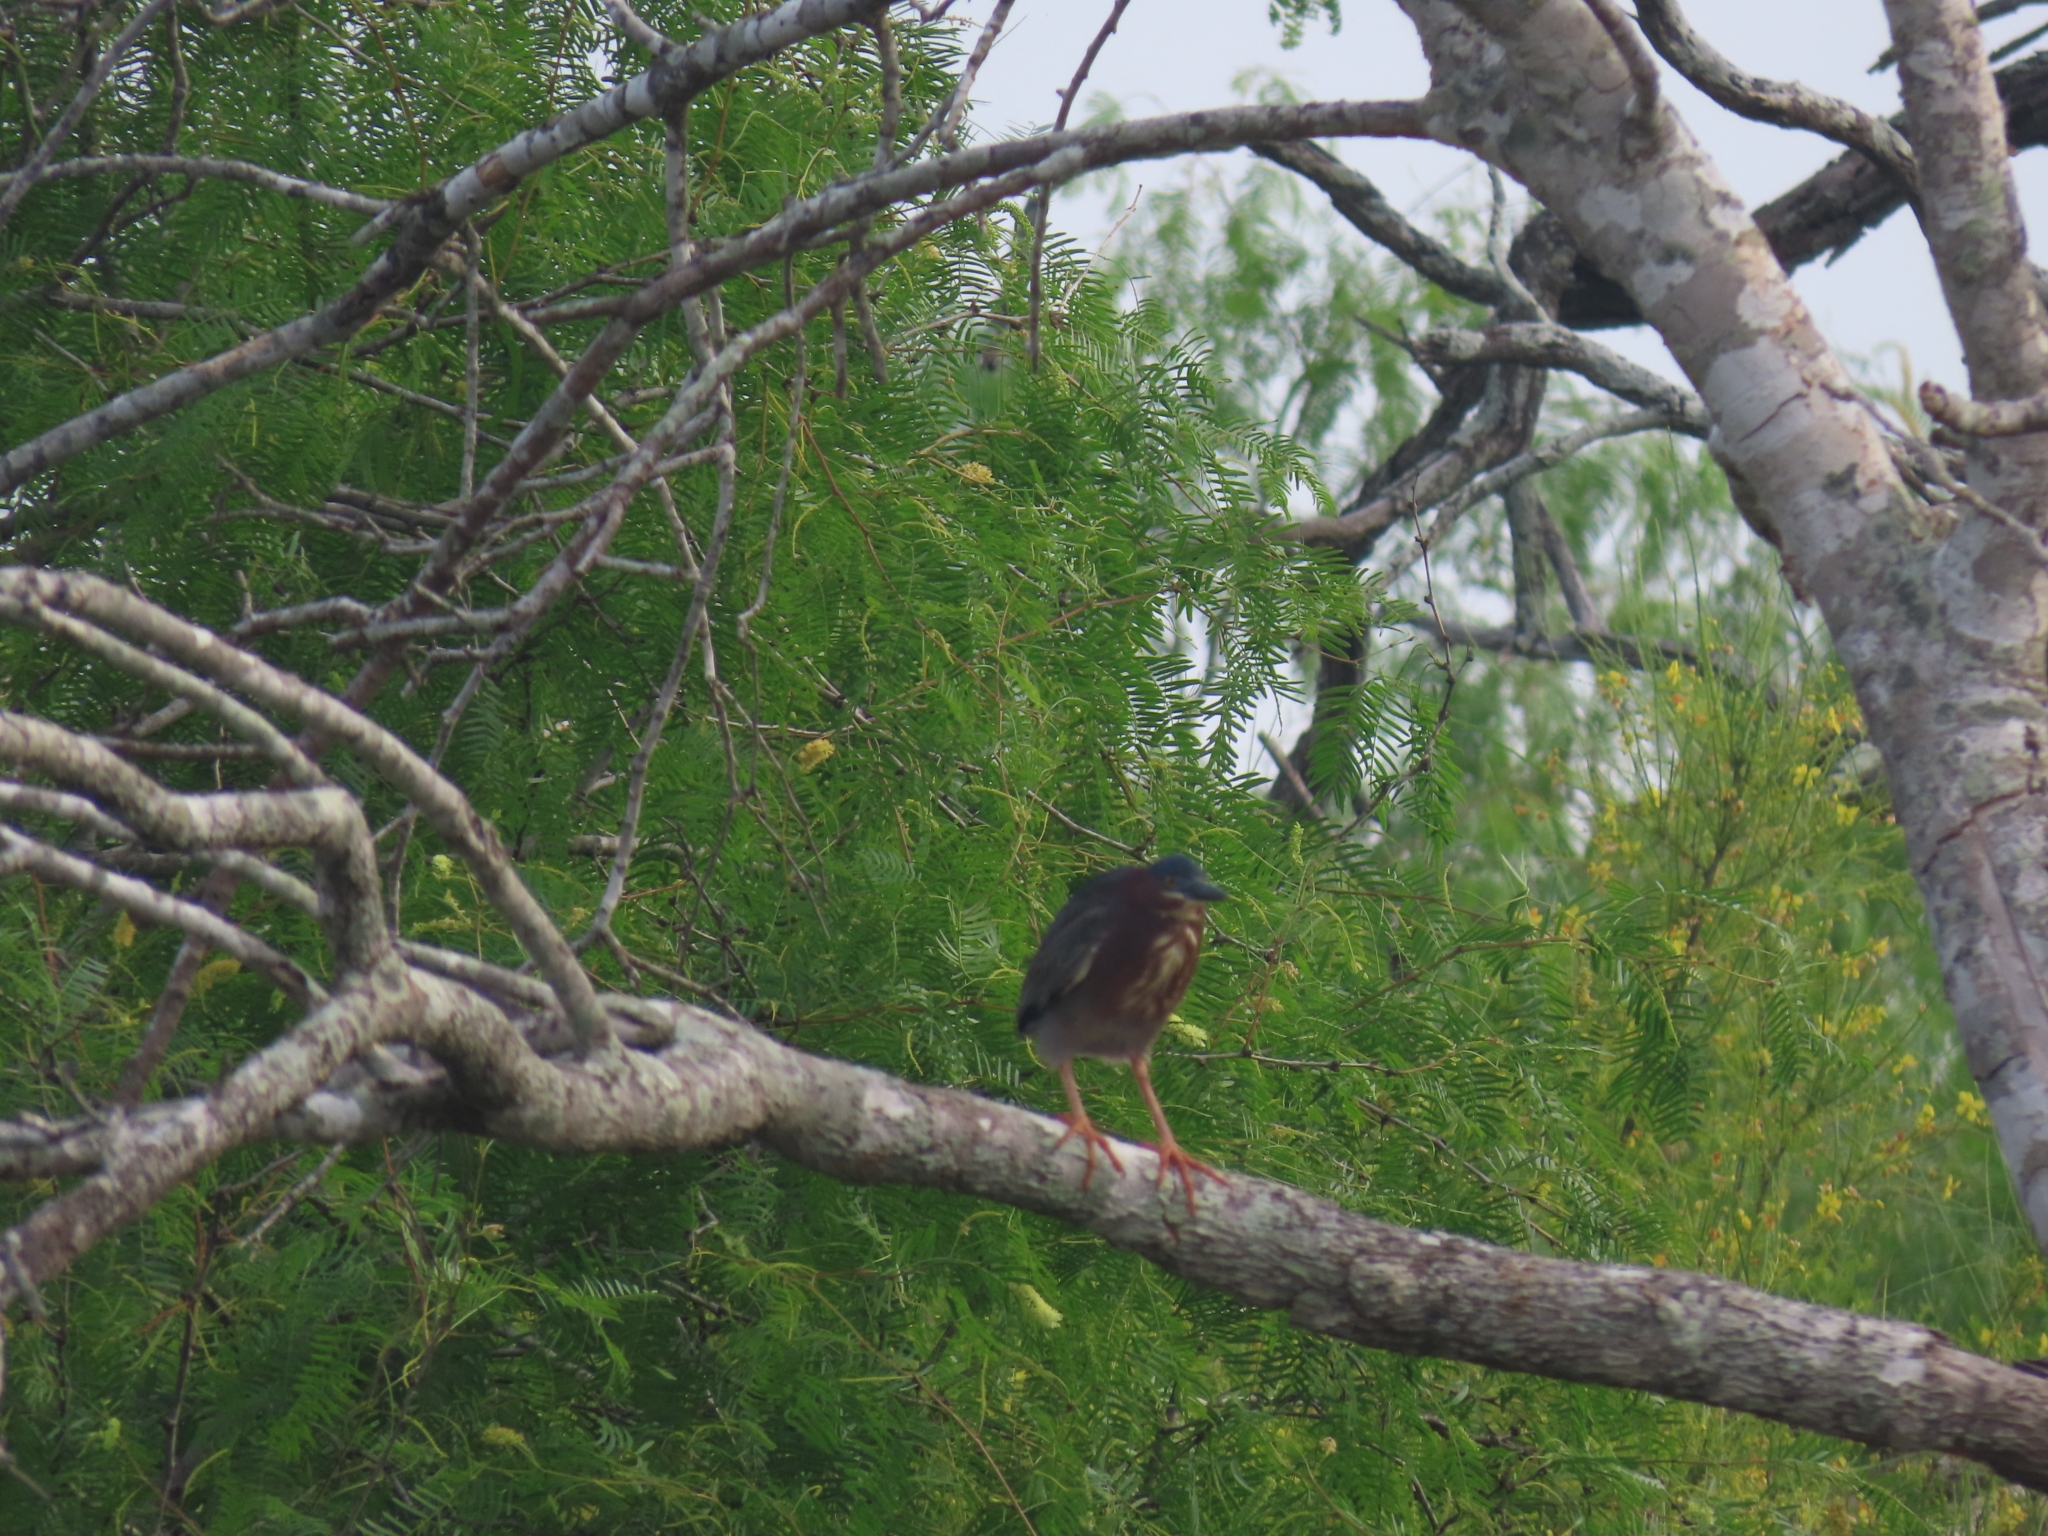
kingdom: Animalia
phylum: Chordata
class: Aves
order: Pelecaniformes
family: Ardeidae
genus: Butorides
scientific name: Butorides virescens
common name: Green heron
